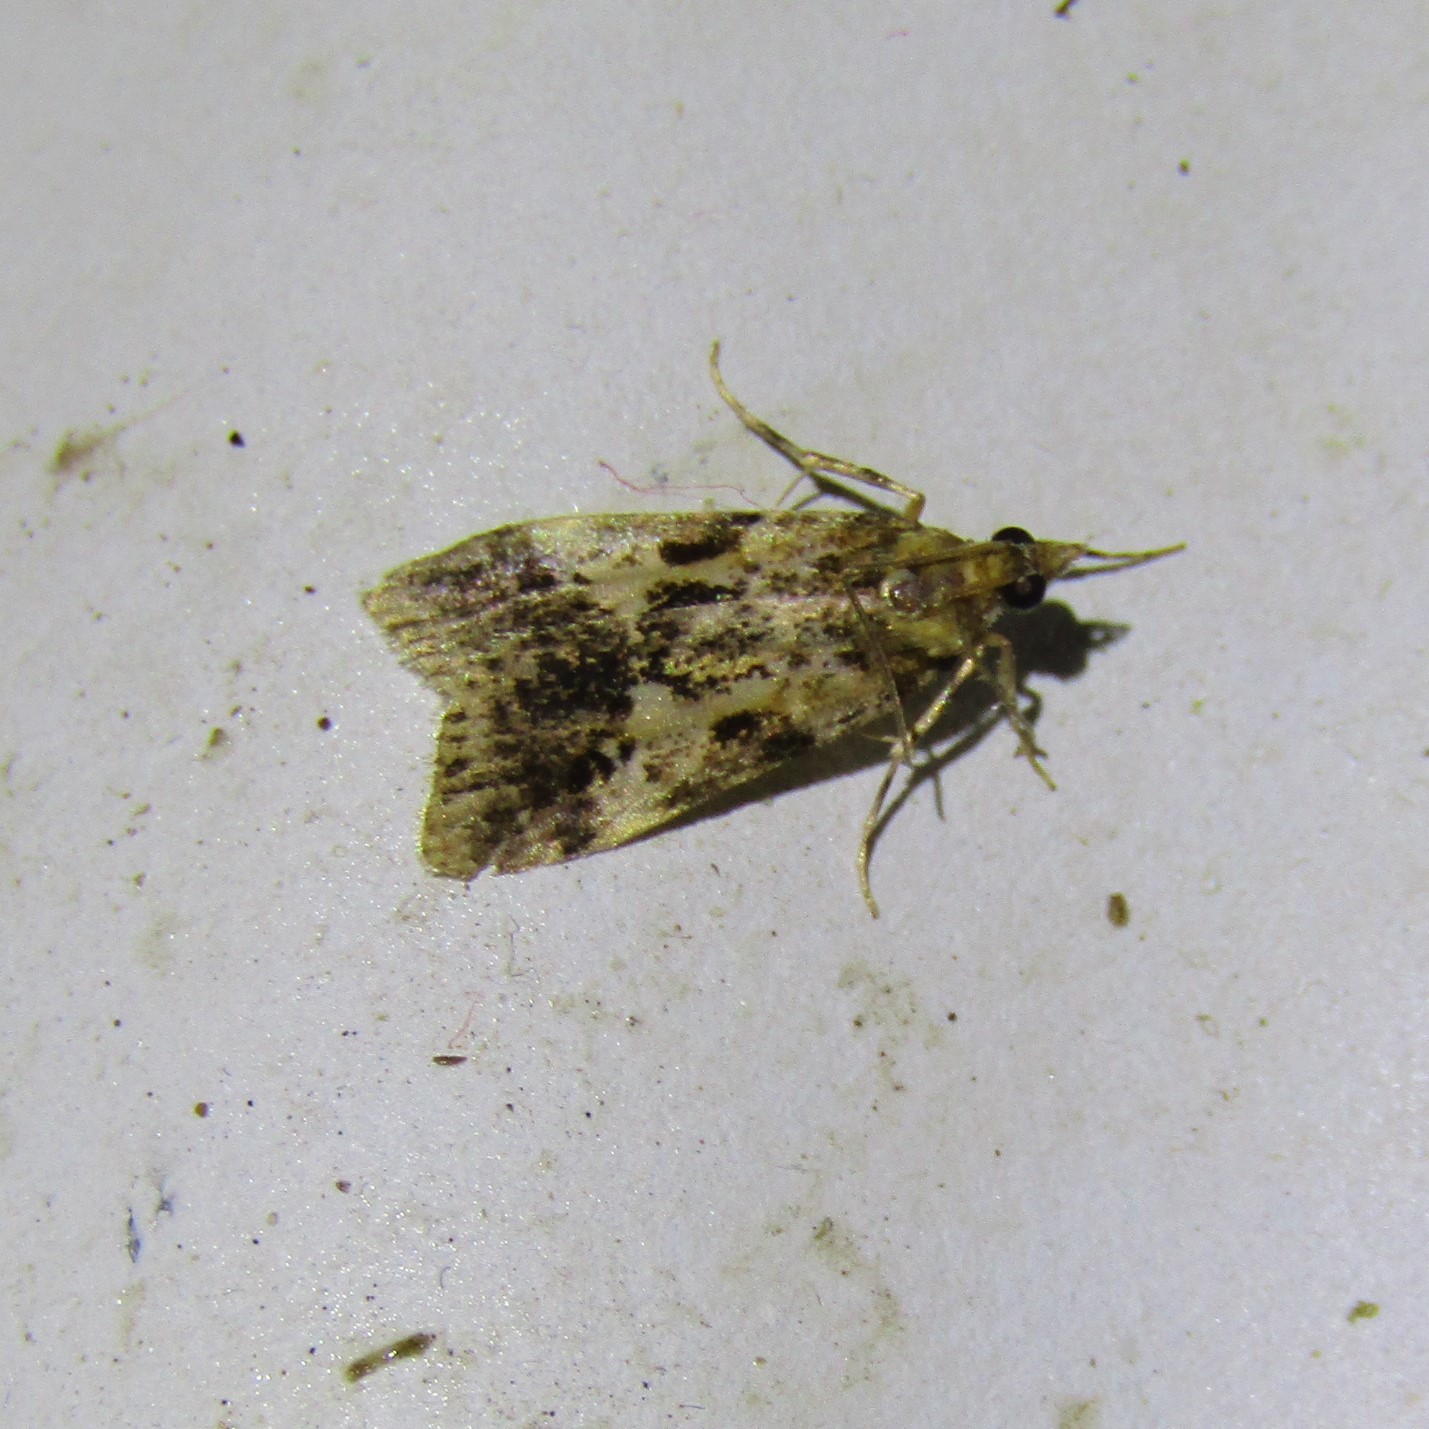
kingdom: Animalia
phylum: Arthropoda
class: Insecta
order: Lepidoptera
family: Crambidae
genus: Eudonia
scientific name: Eudonia characta
